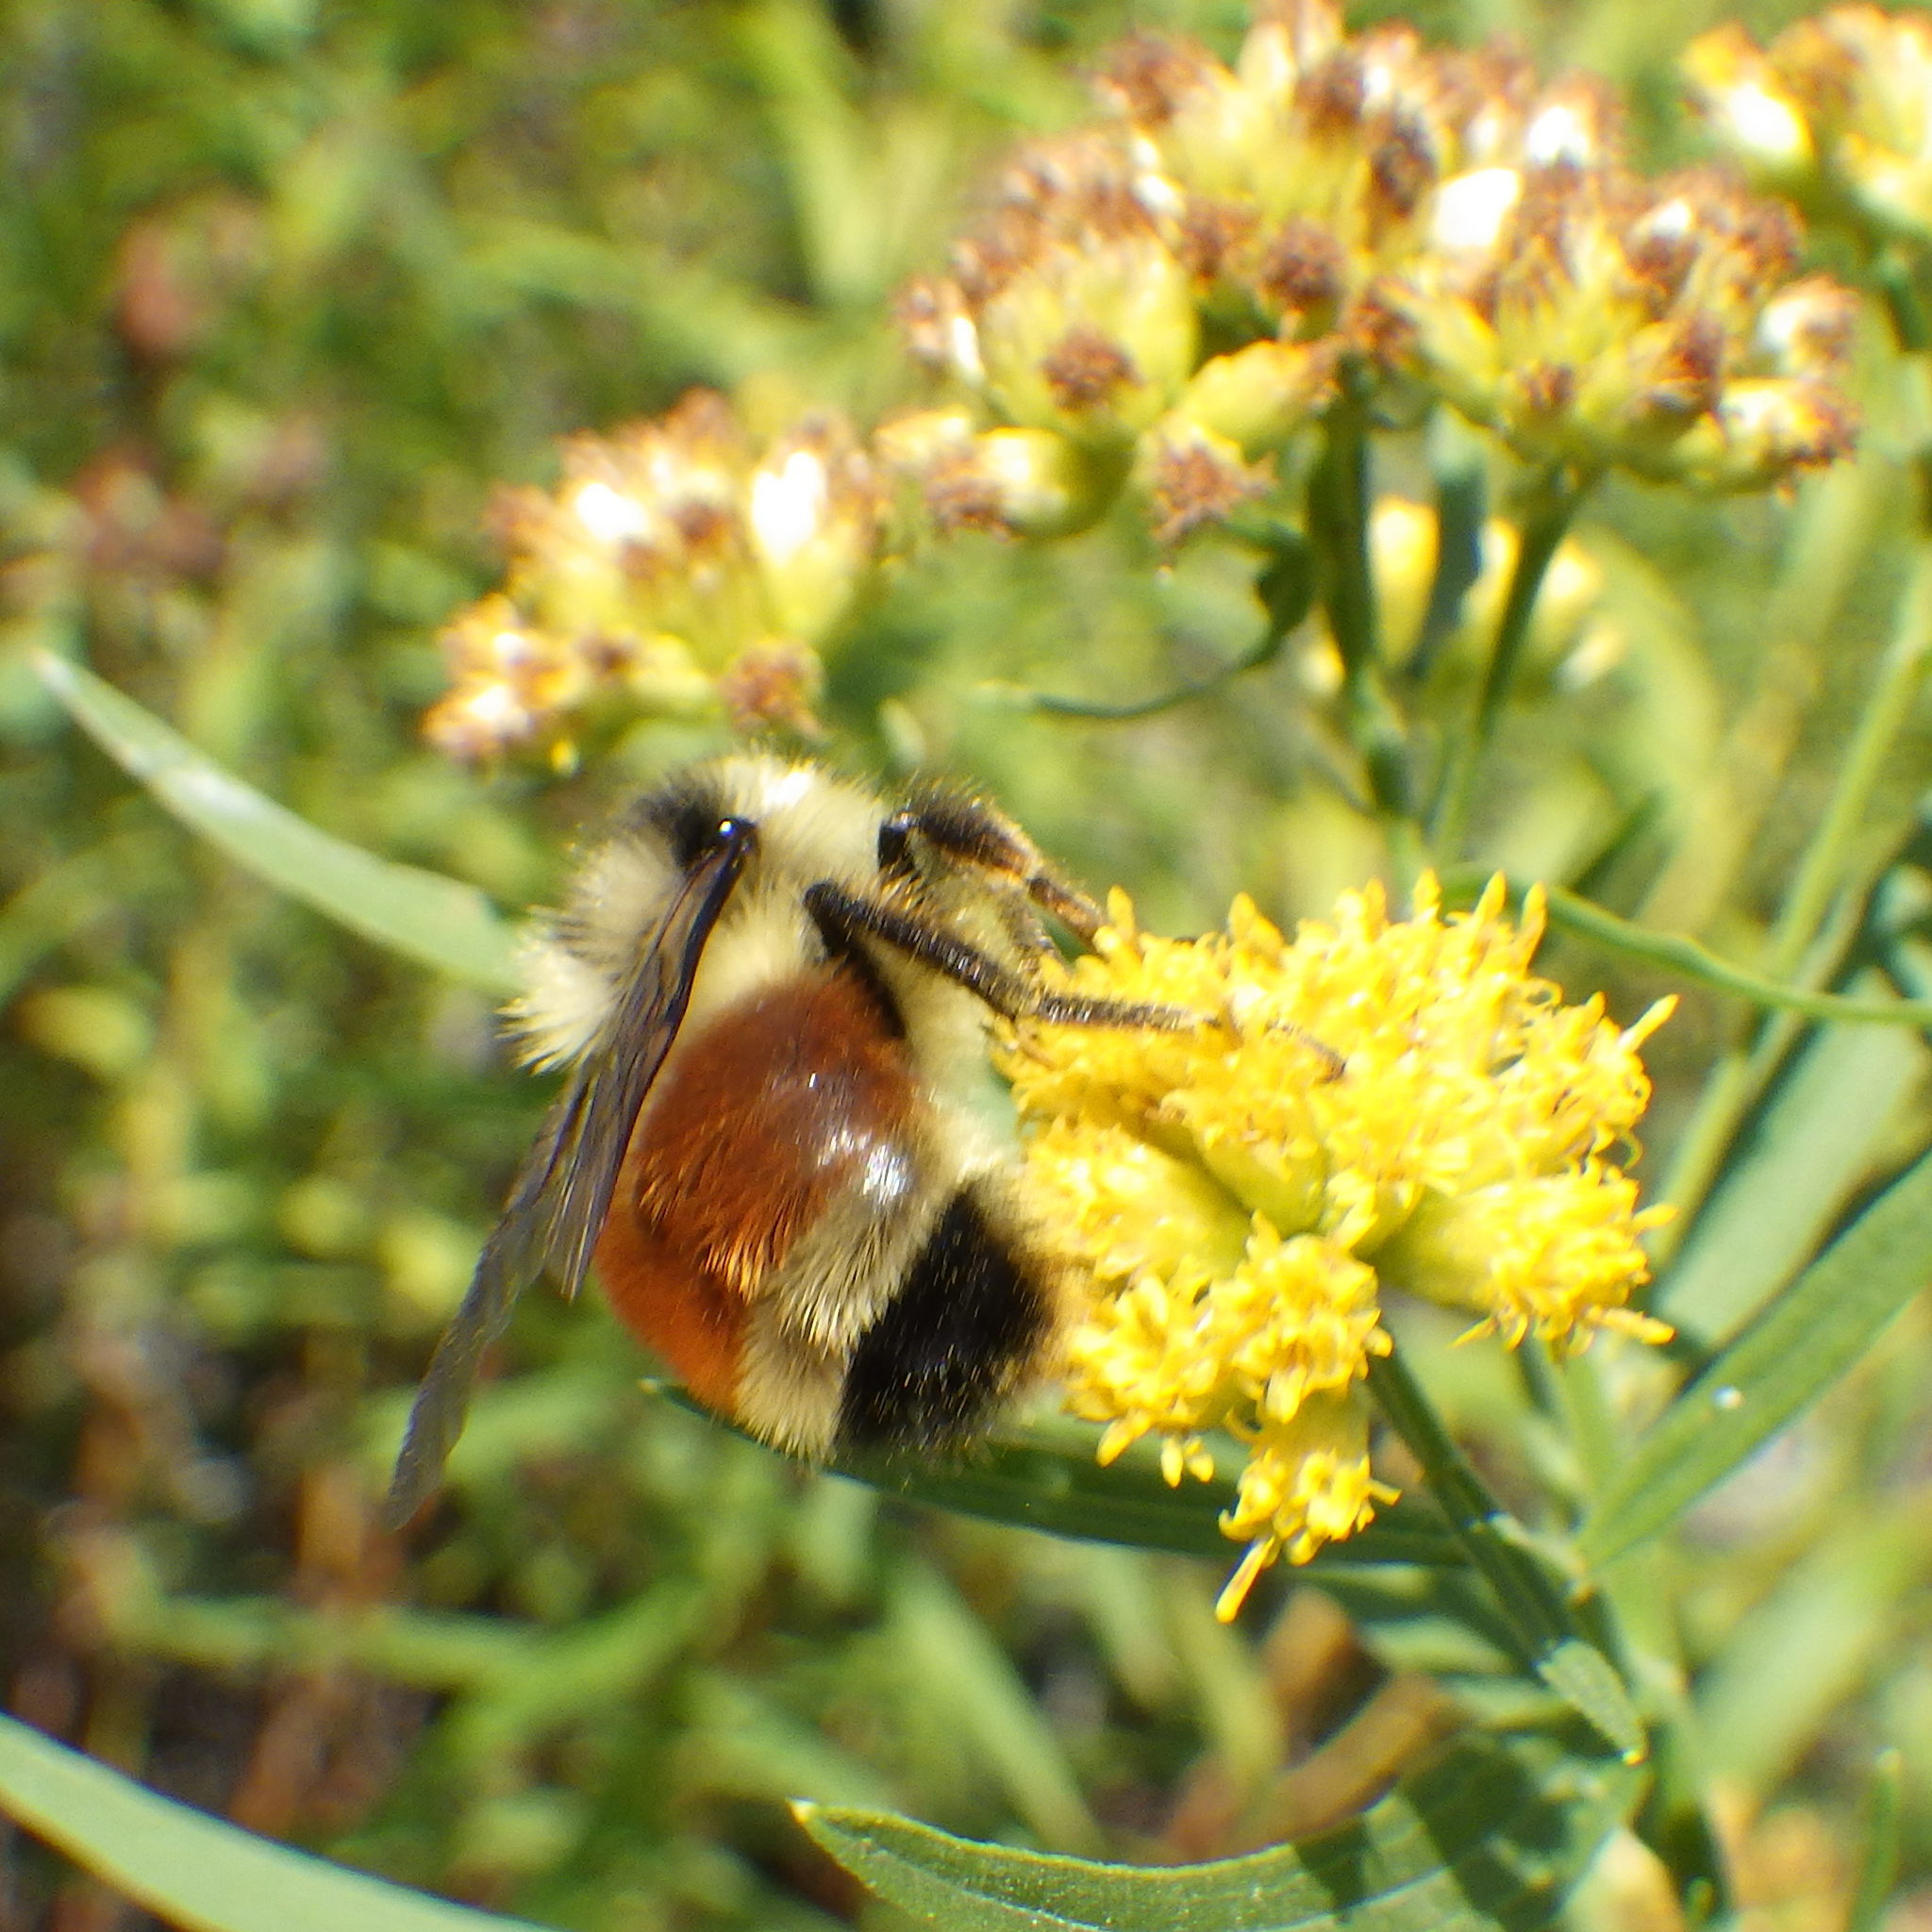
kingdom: Animalia
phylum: Arthropoda
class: Insecta
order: Hymenoptera
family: Apidae
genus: Bombus
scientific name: Bombus ternarius
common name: Tri-colored bumble bee
